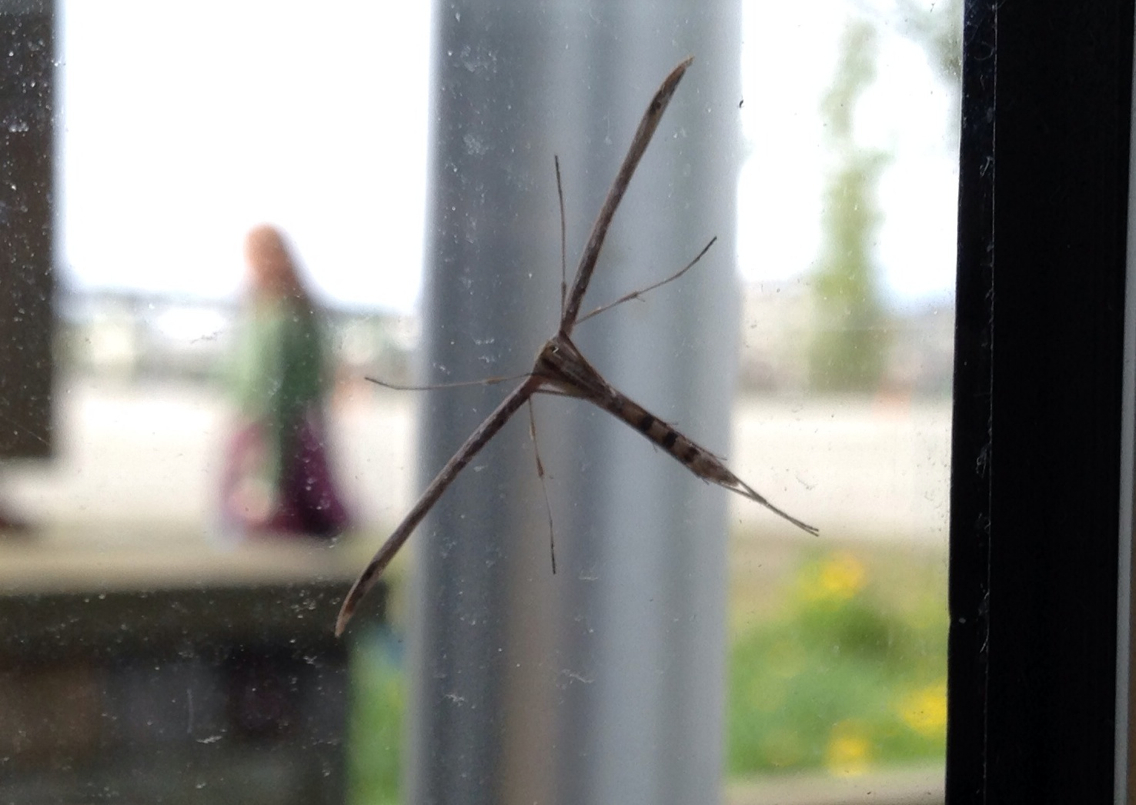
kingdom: Animalia
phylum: Arthropoda
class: Insecta
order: Lepidoptera
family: Pterophoridae
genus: Emmelina
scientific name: Emmelina monodactyla
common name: Common plume
